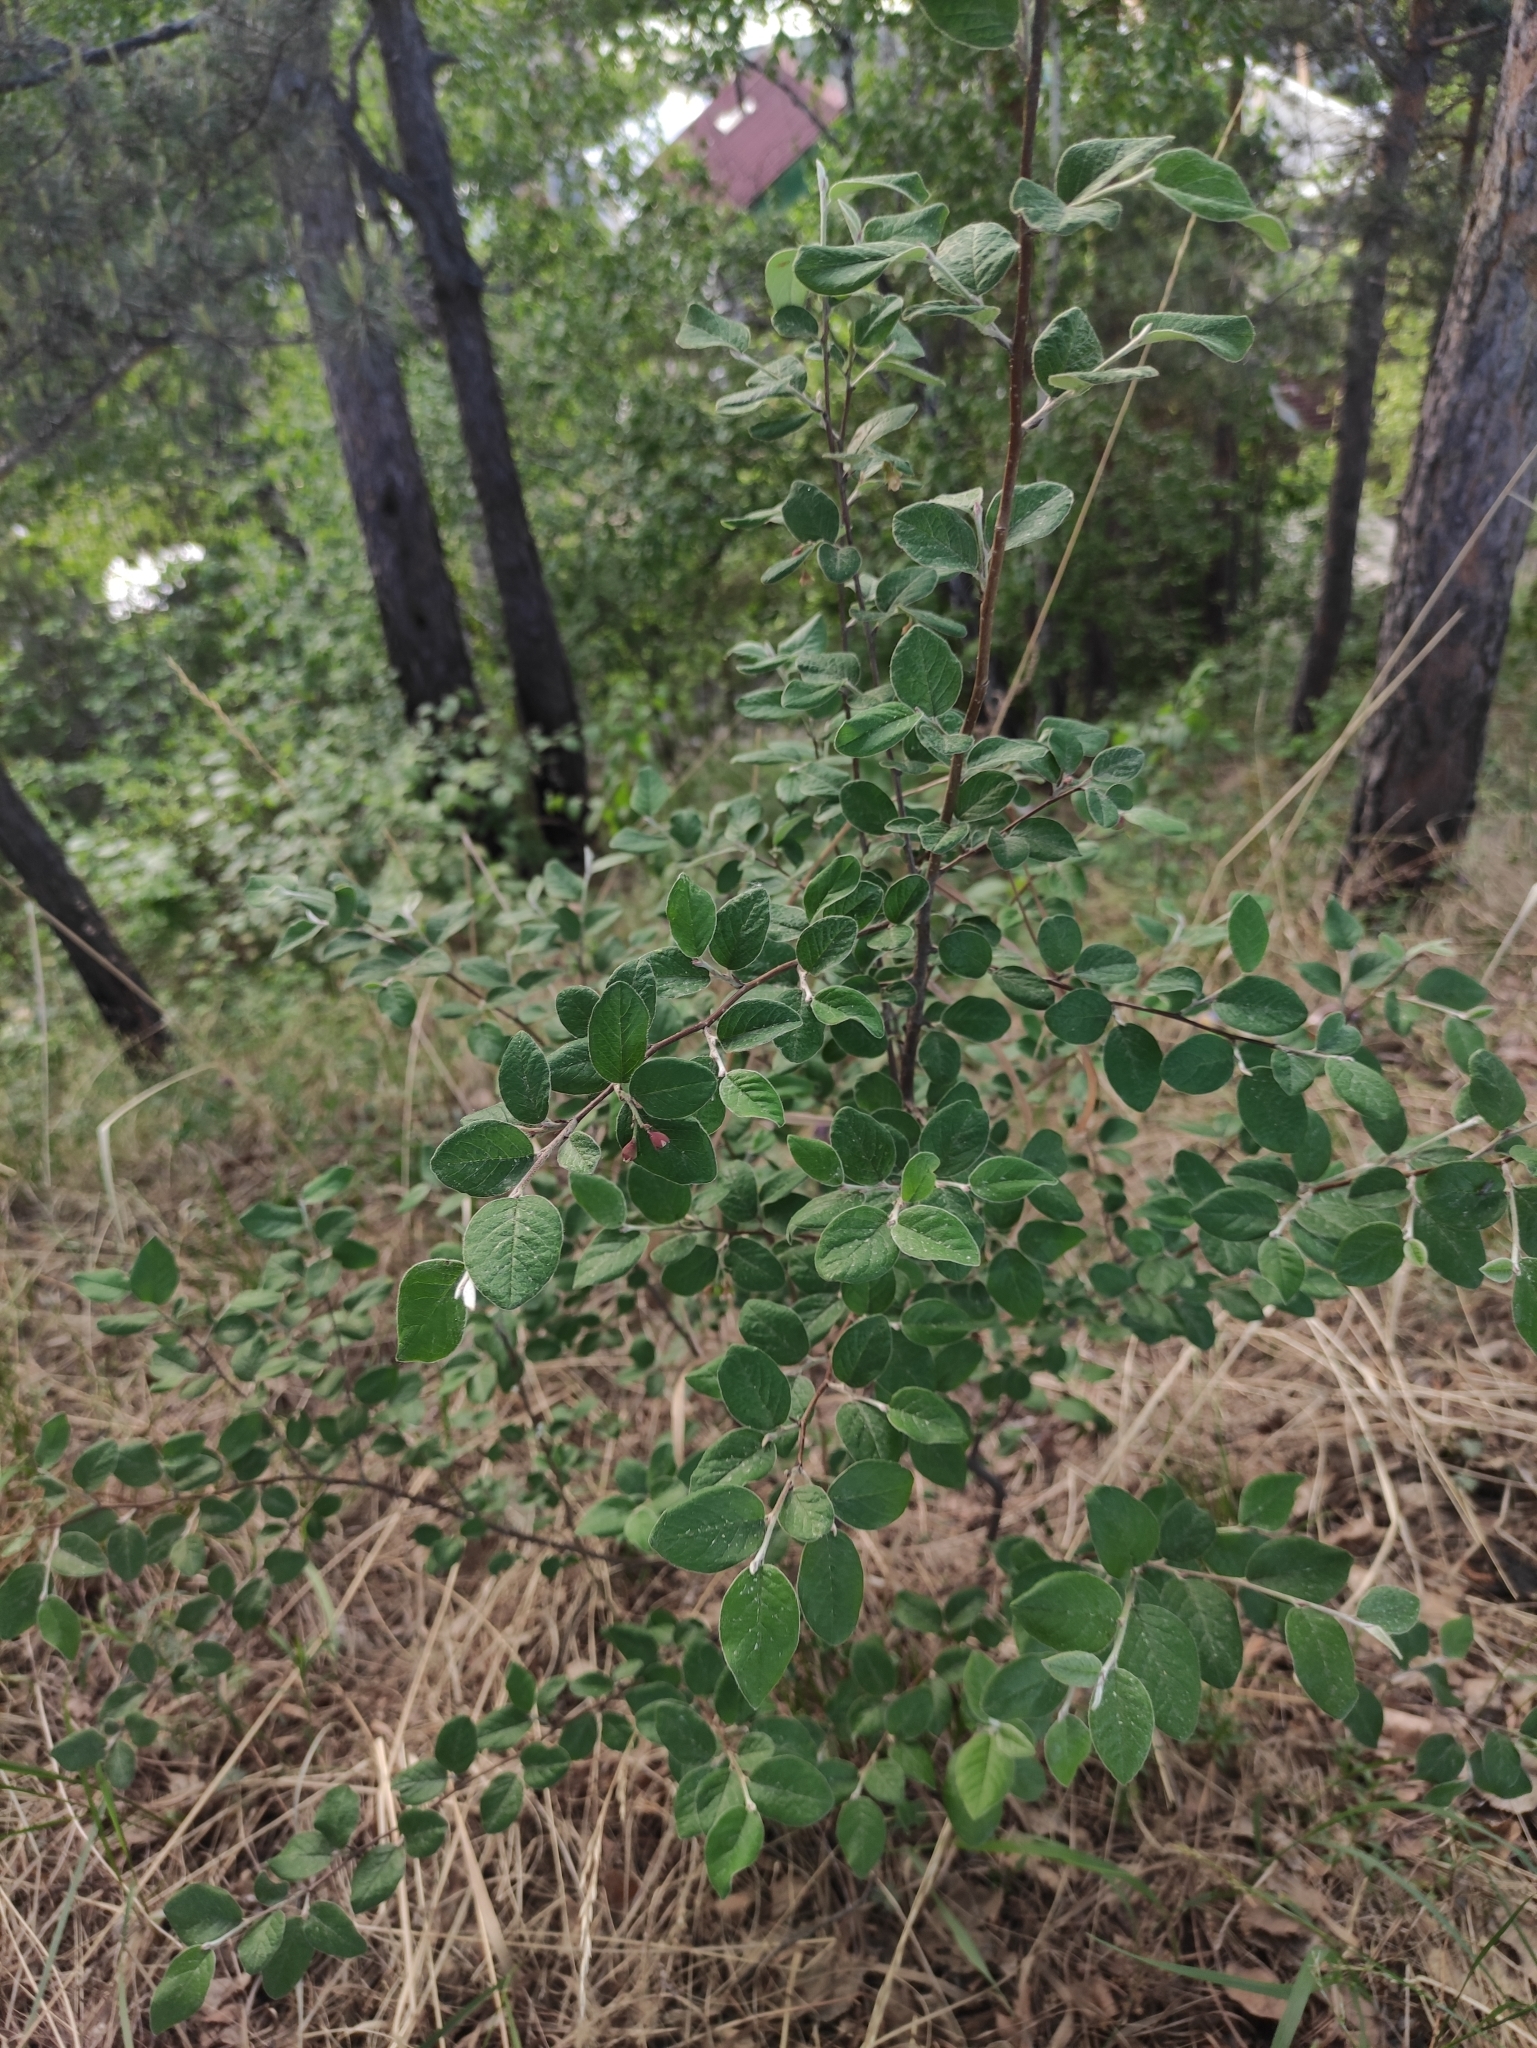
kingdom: Plantae
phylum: Tracheophyta
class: Magnoliopsida
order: Rosales
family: Rosaceae
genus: Cotoneaster
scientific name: Cotoneaster melanocarpus
